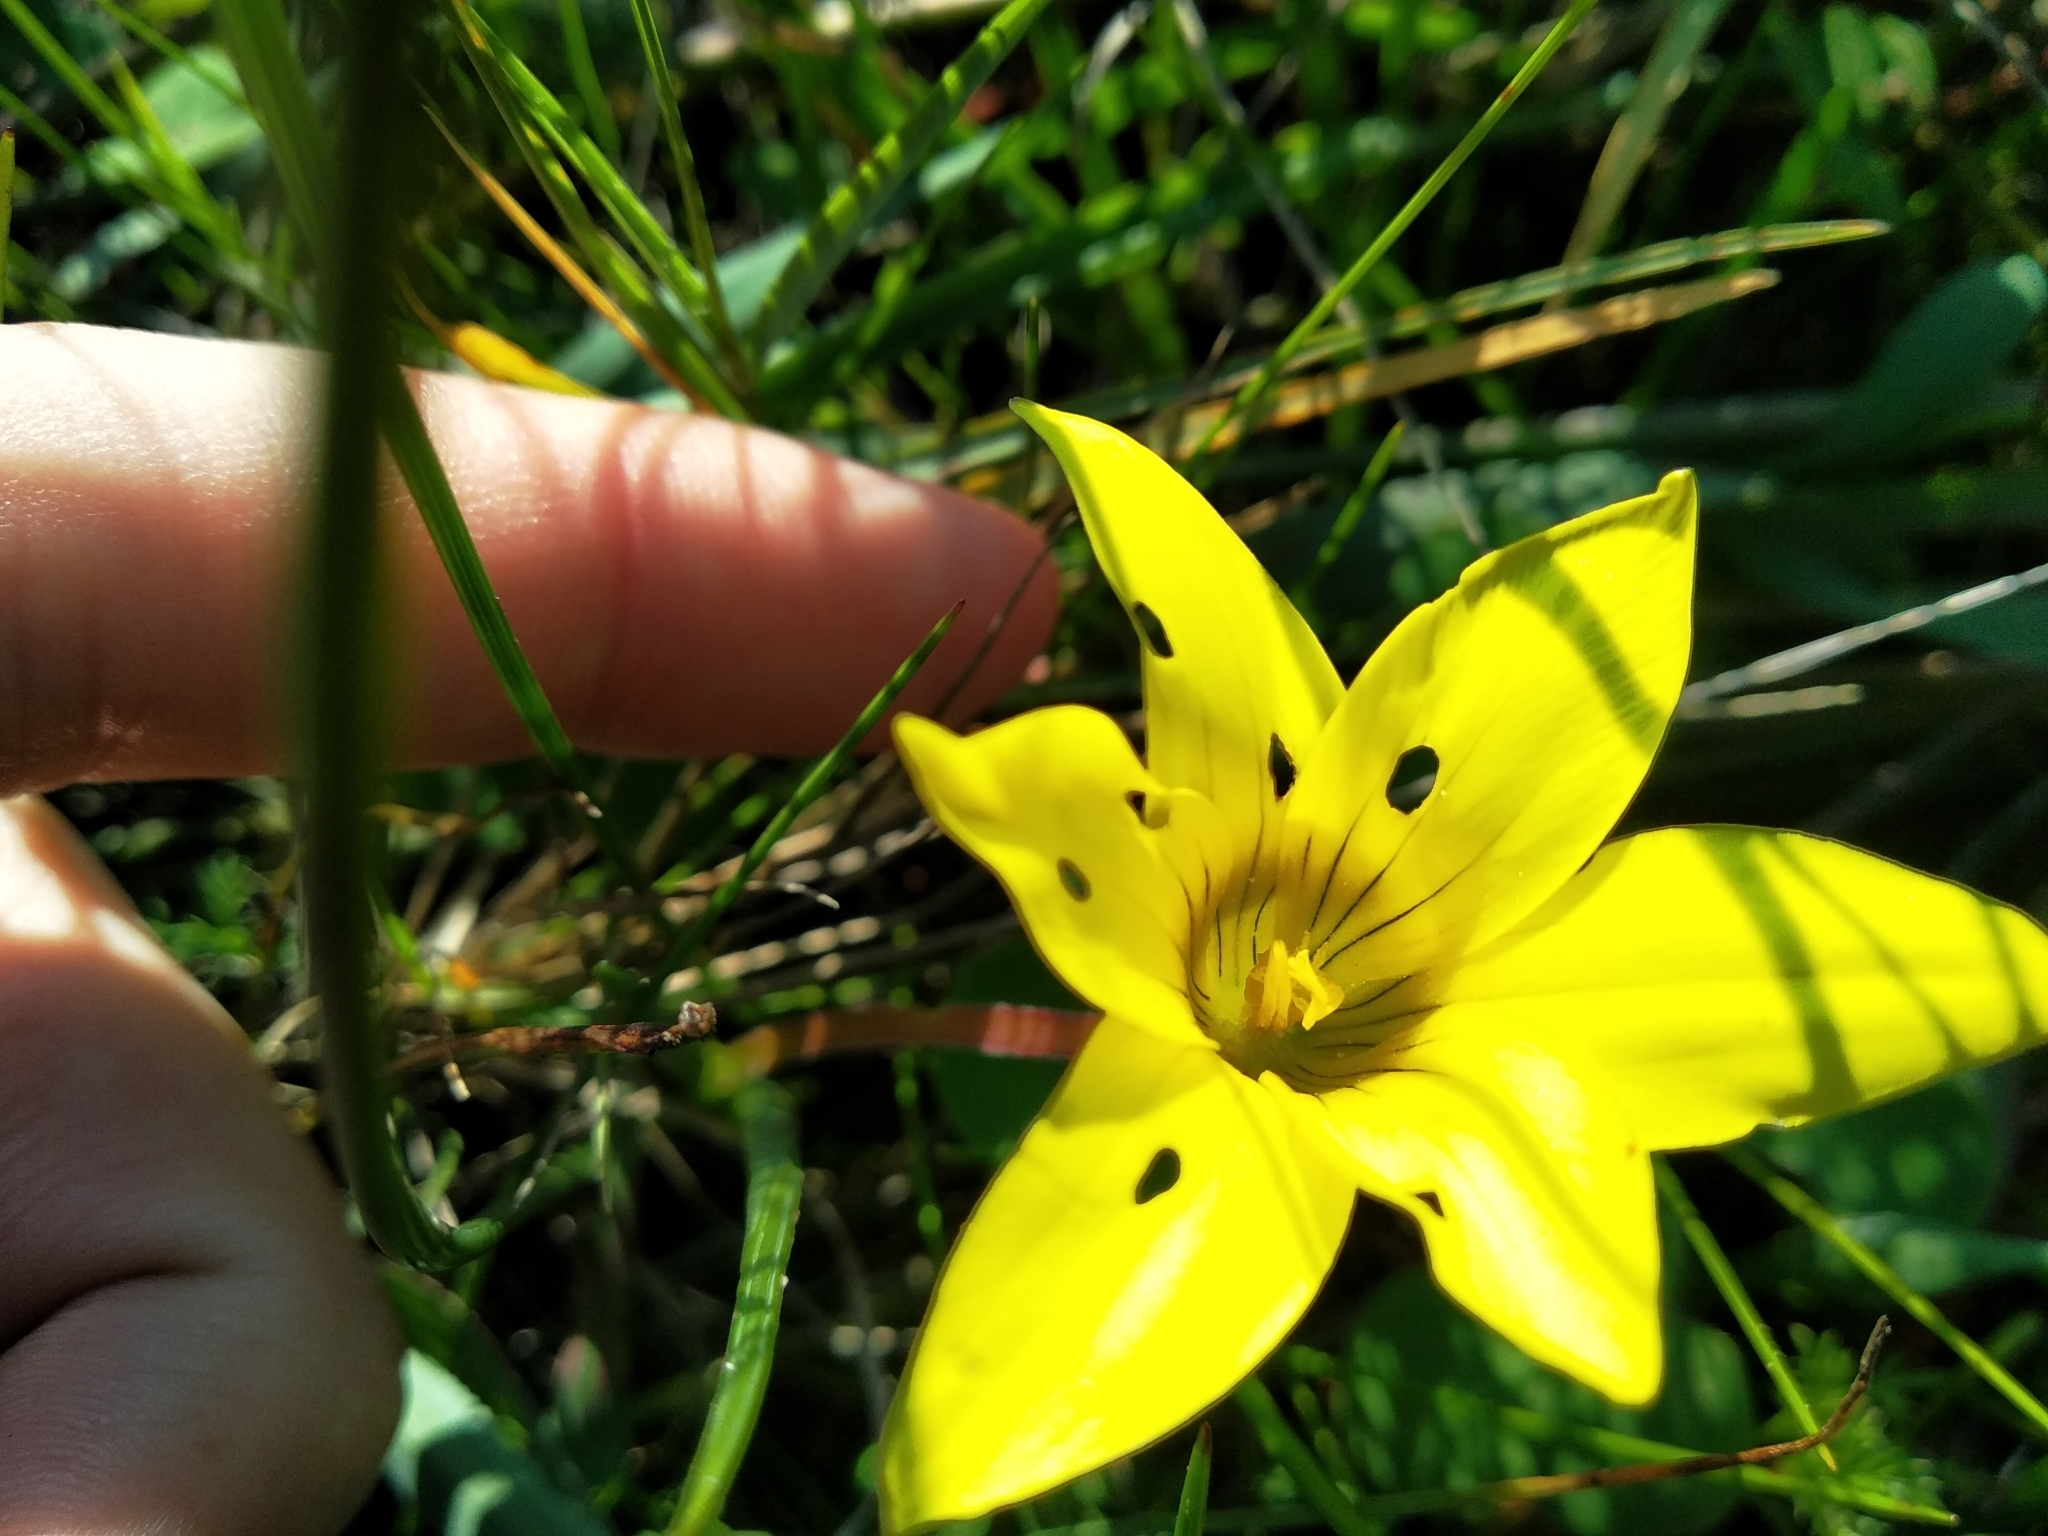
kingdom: Plantae
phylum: Tracheophyta
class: Liliopsida
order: Asparagales
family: Iridaceae
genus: Romulea
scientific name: Romulea flava
